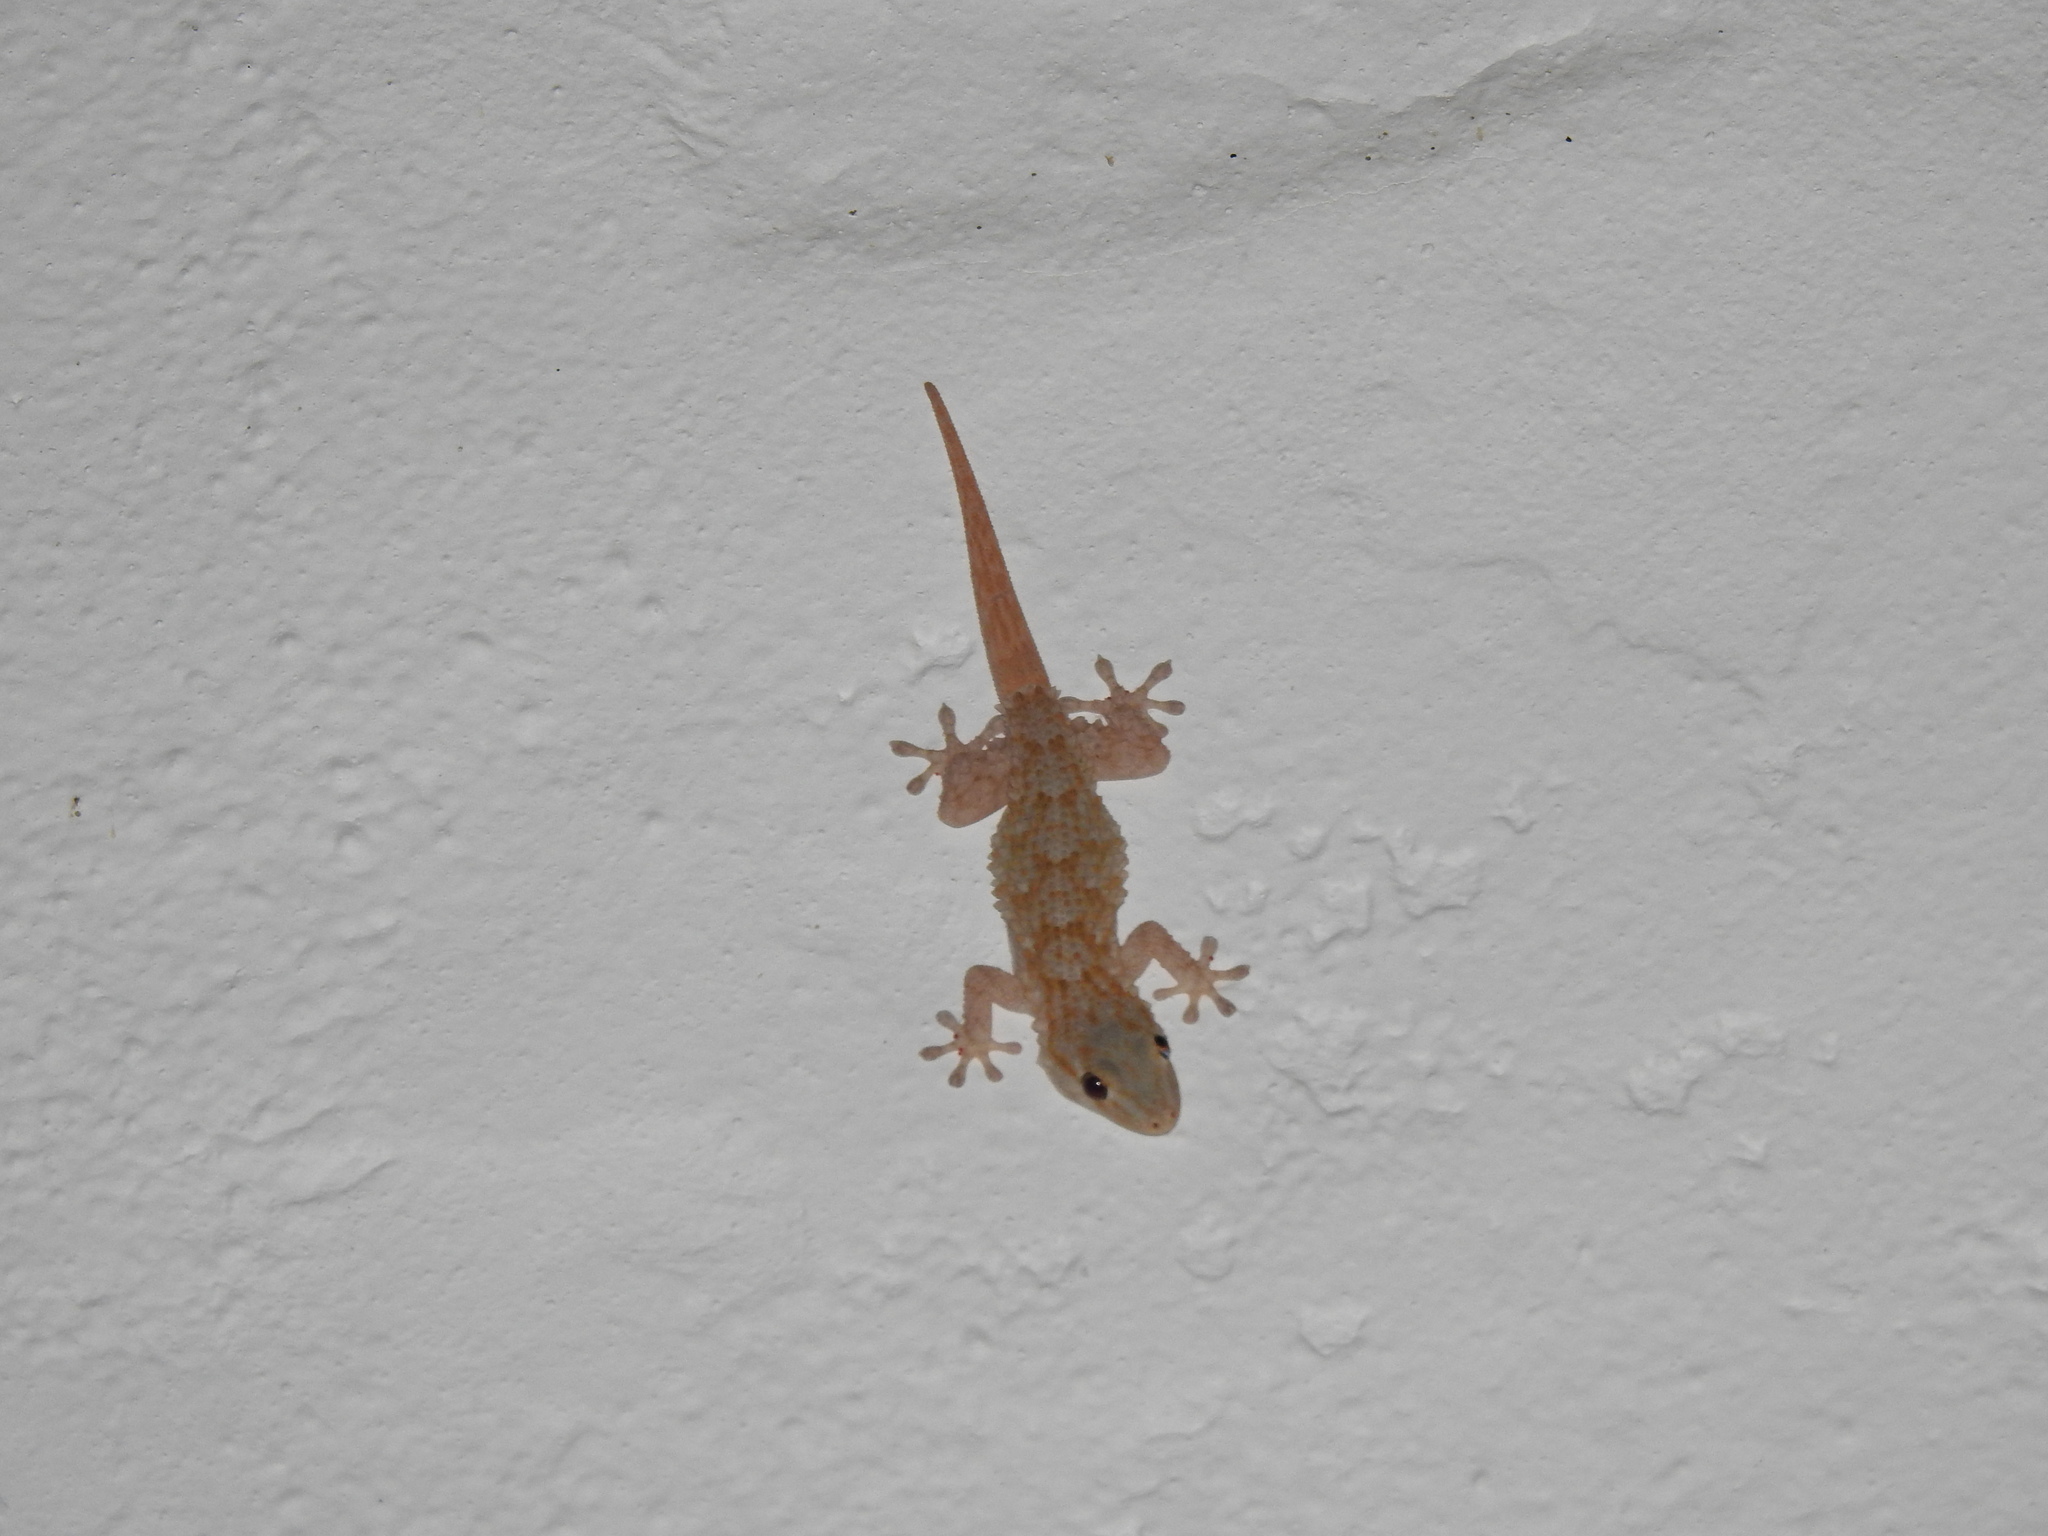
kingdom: Animalia
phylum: Chordata
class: Squamata
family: Phyllodactylidae
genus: Tarentola
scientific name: Tarentola mauritanica
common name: Moorish gecko
